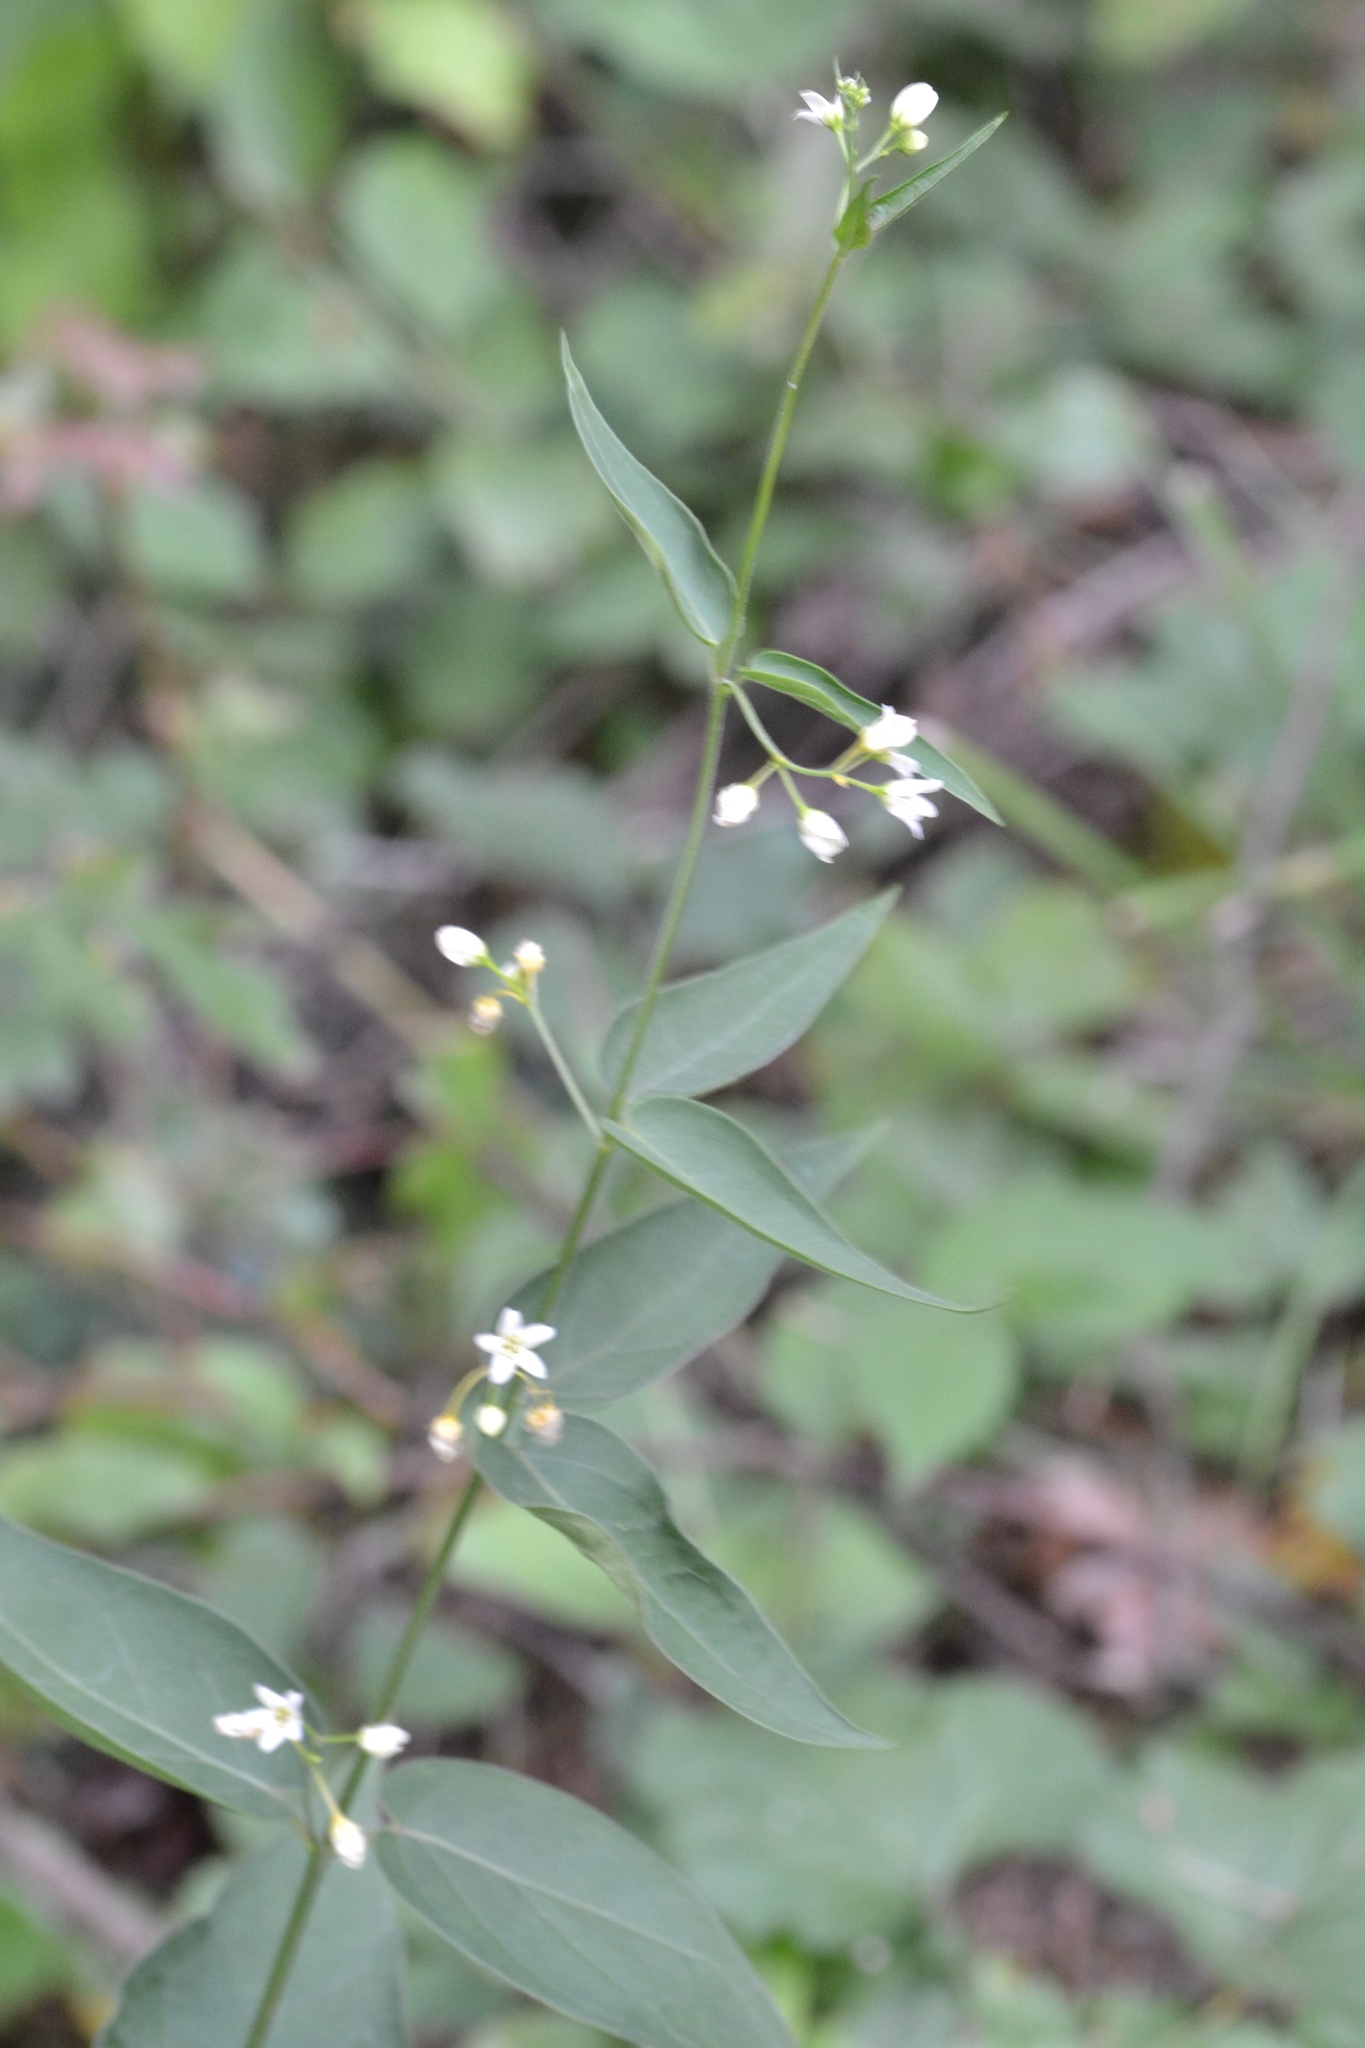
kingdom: Plantae
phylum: Tracheophyta
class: Magnoliopsida
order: Gentianales
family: Apocynaceae
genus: Vincetoxicum
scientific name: Vincetoxicum hirundinaria
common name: White swallowwort
